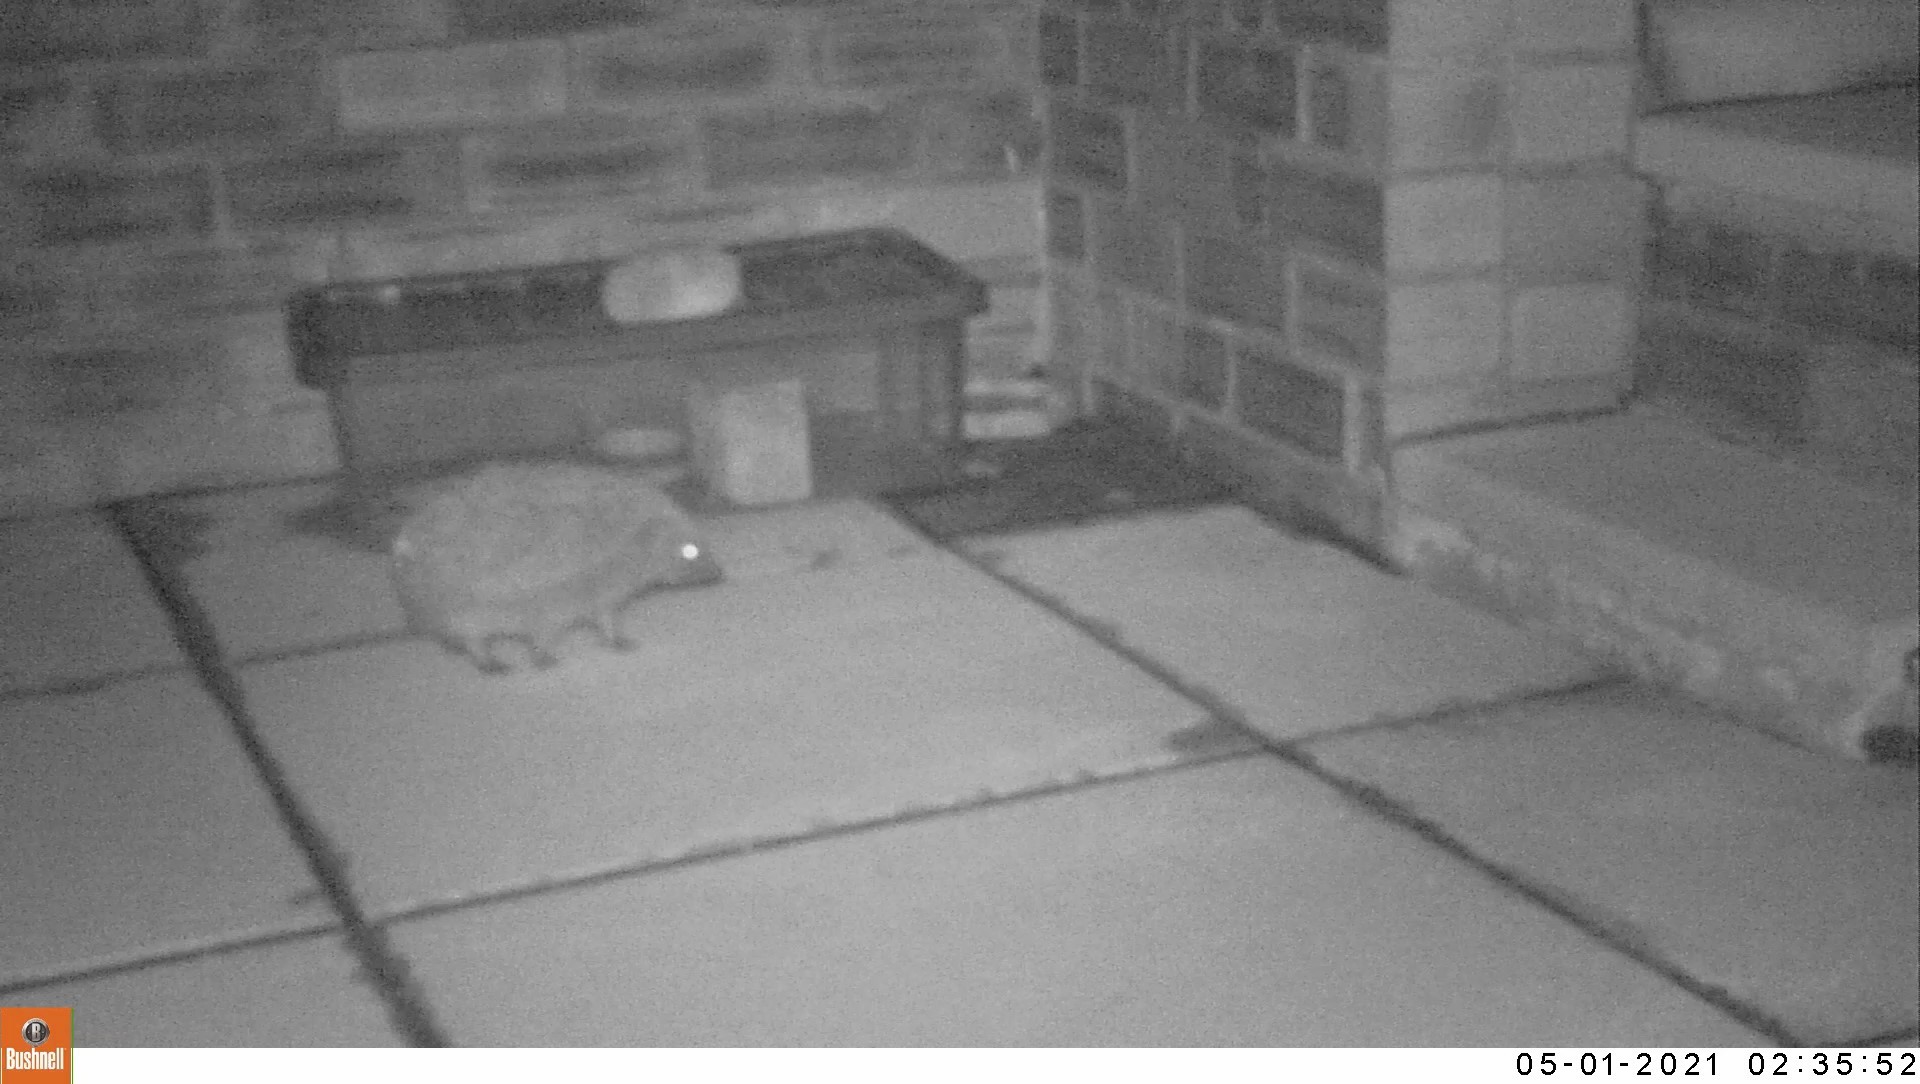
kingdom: Animalia
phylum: Chordata
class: Mammalia
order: Erinaceomorpha
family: Erinaceidae
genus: Erinaceus
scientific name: Erinaceus europaeus
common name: West european hedgehog
